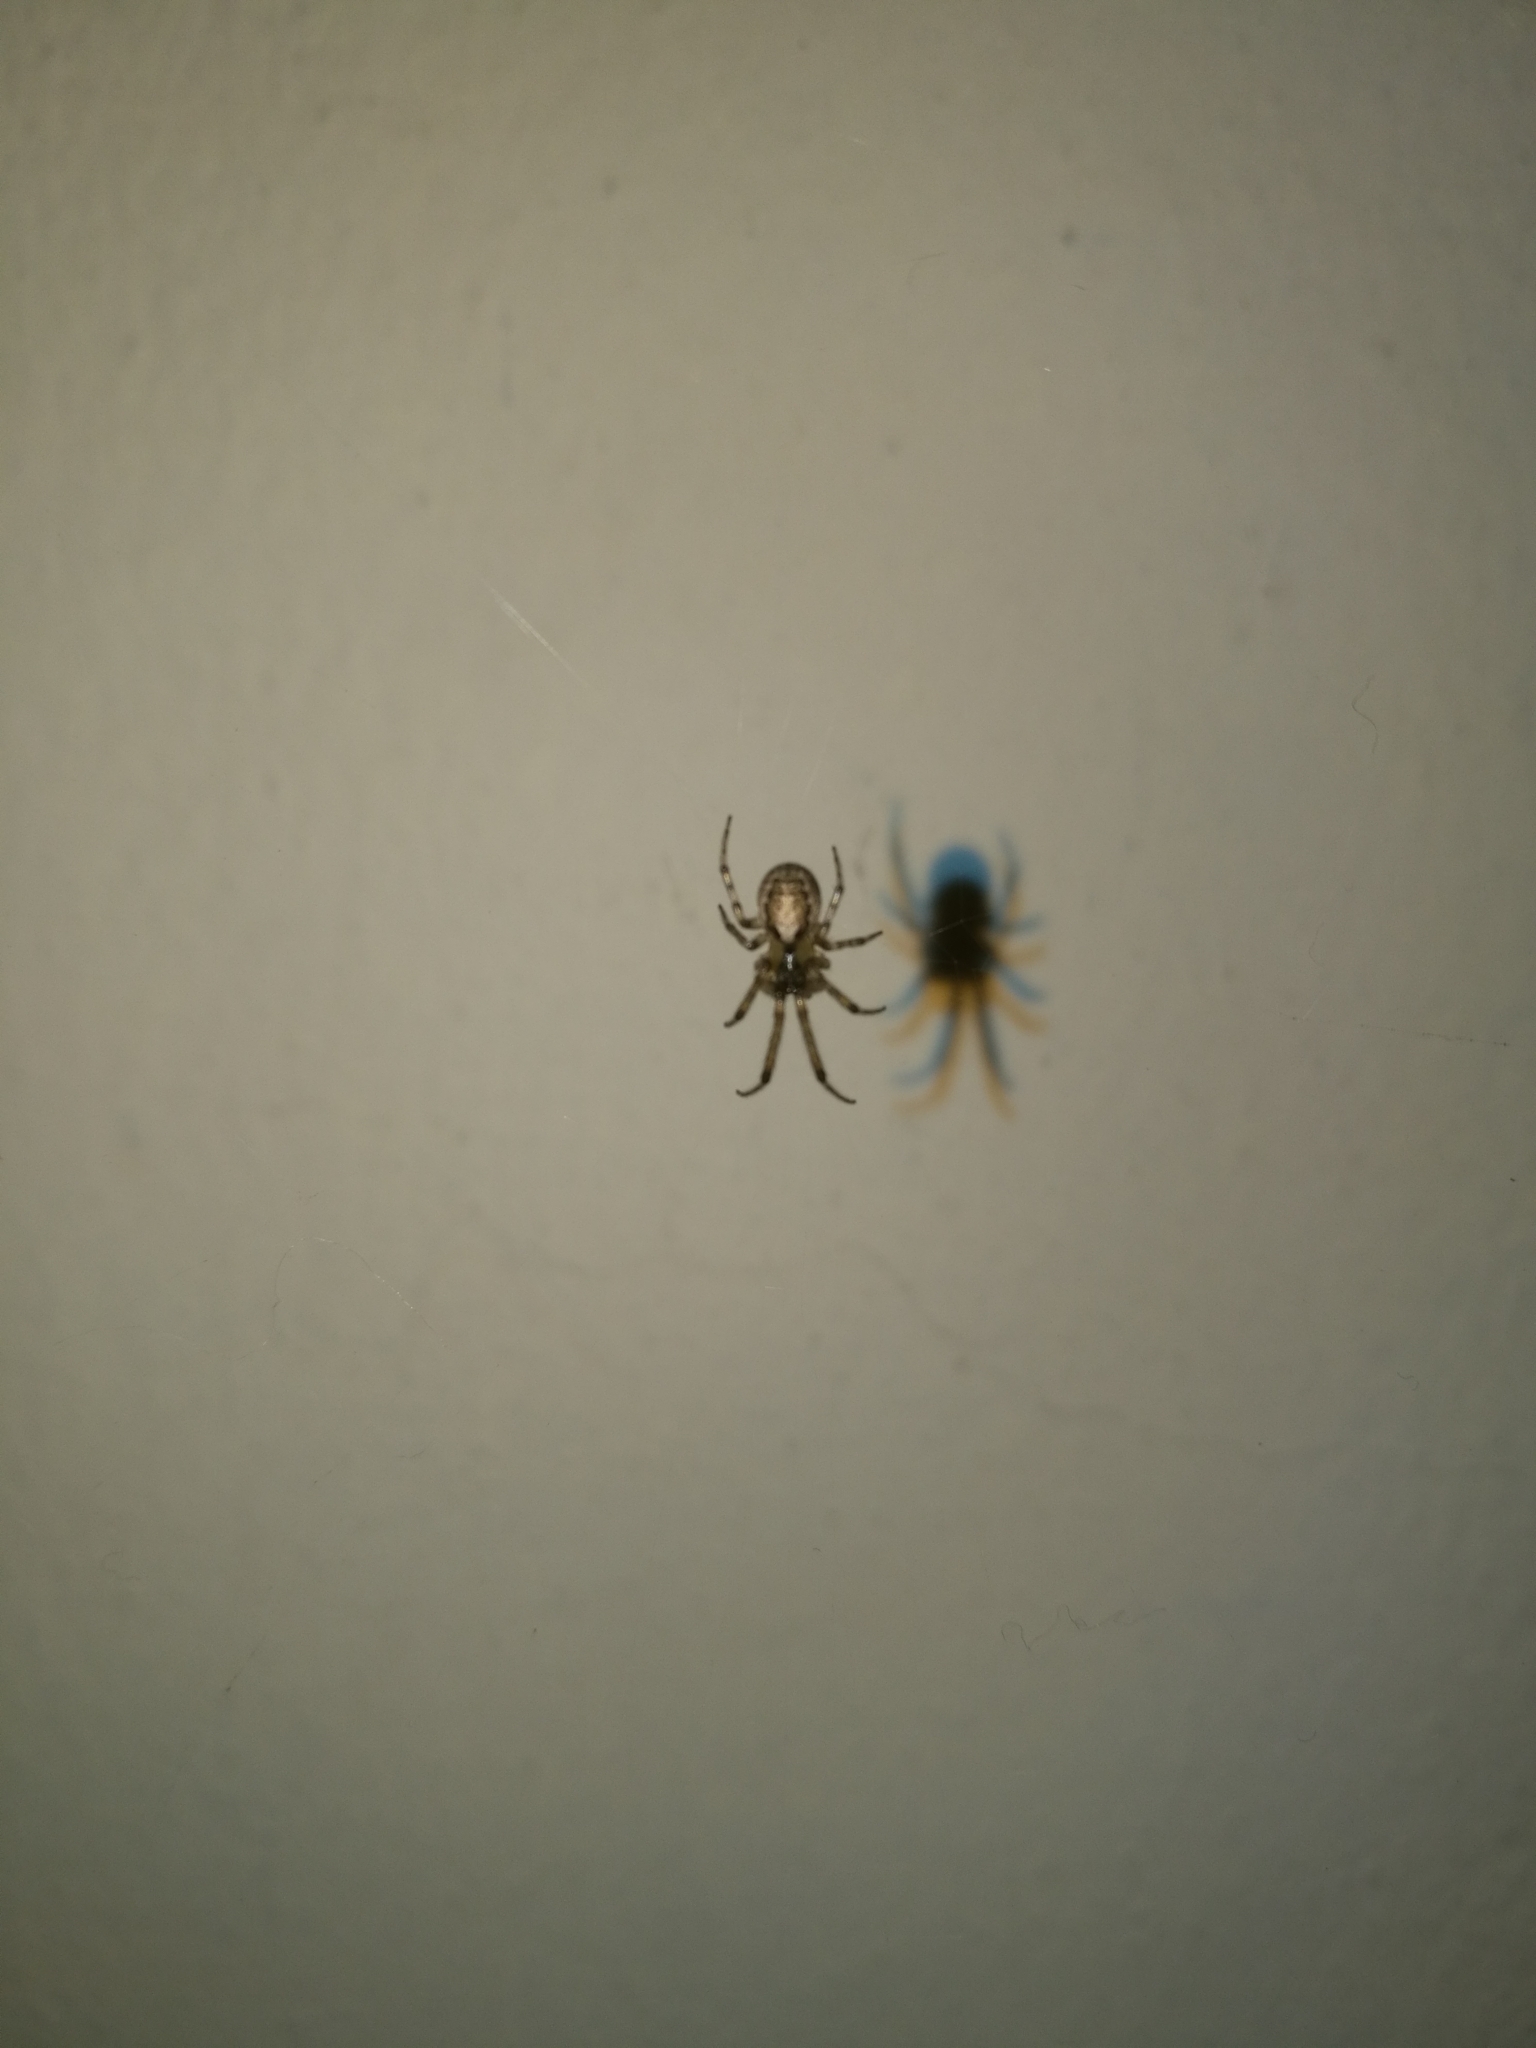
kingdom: Animalia
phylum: Arthropoda
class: Arachnida
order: Araneae
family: Araneidae
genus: Zygiella
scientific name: Zygiella x-notata
